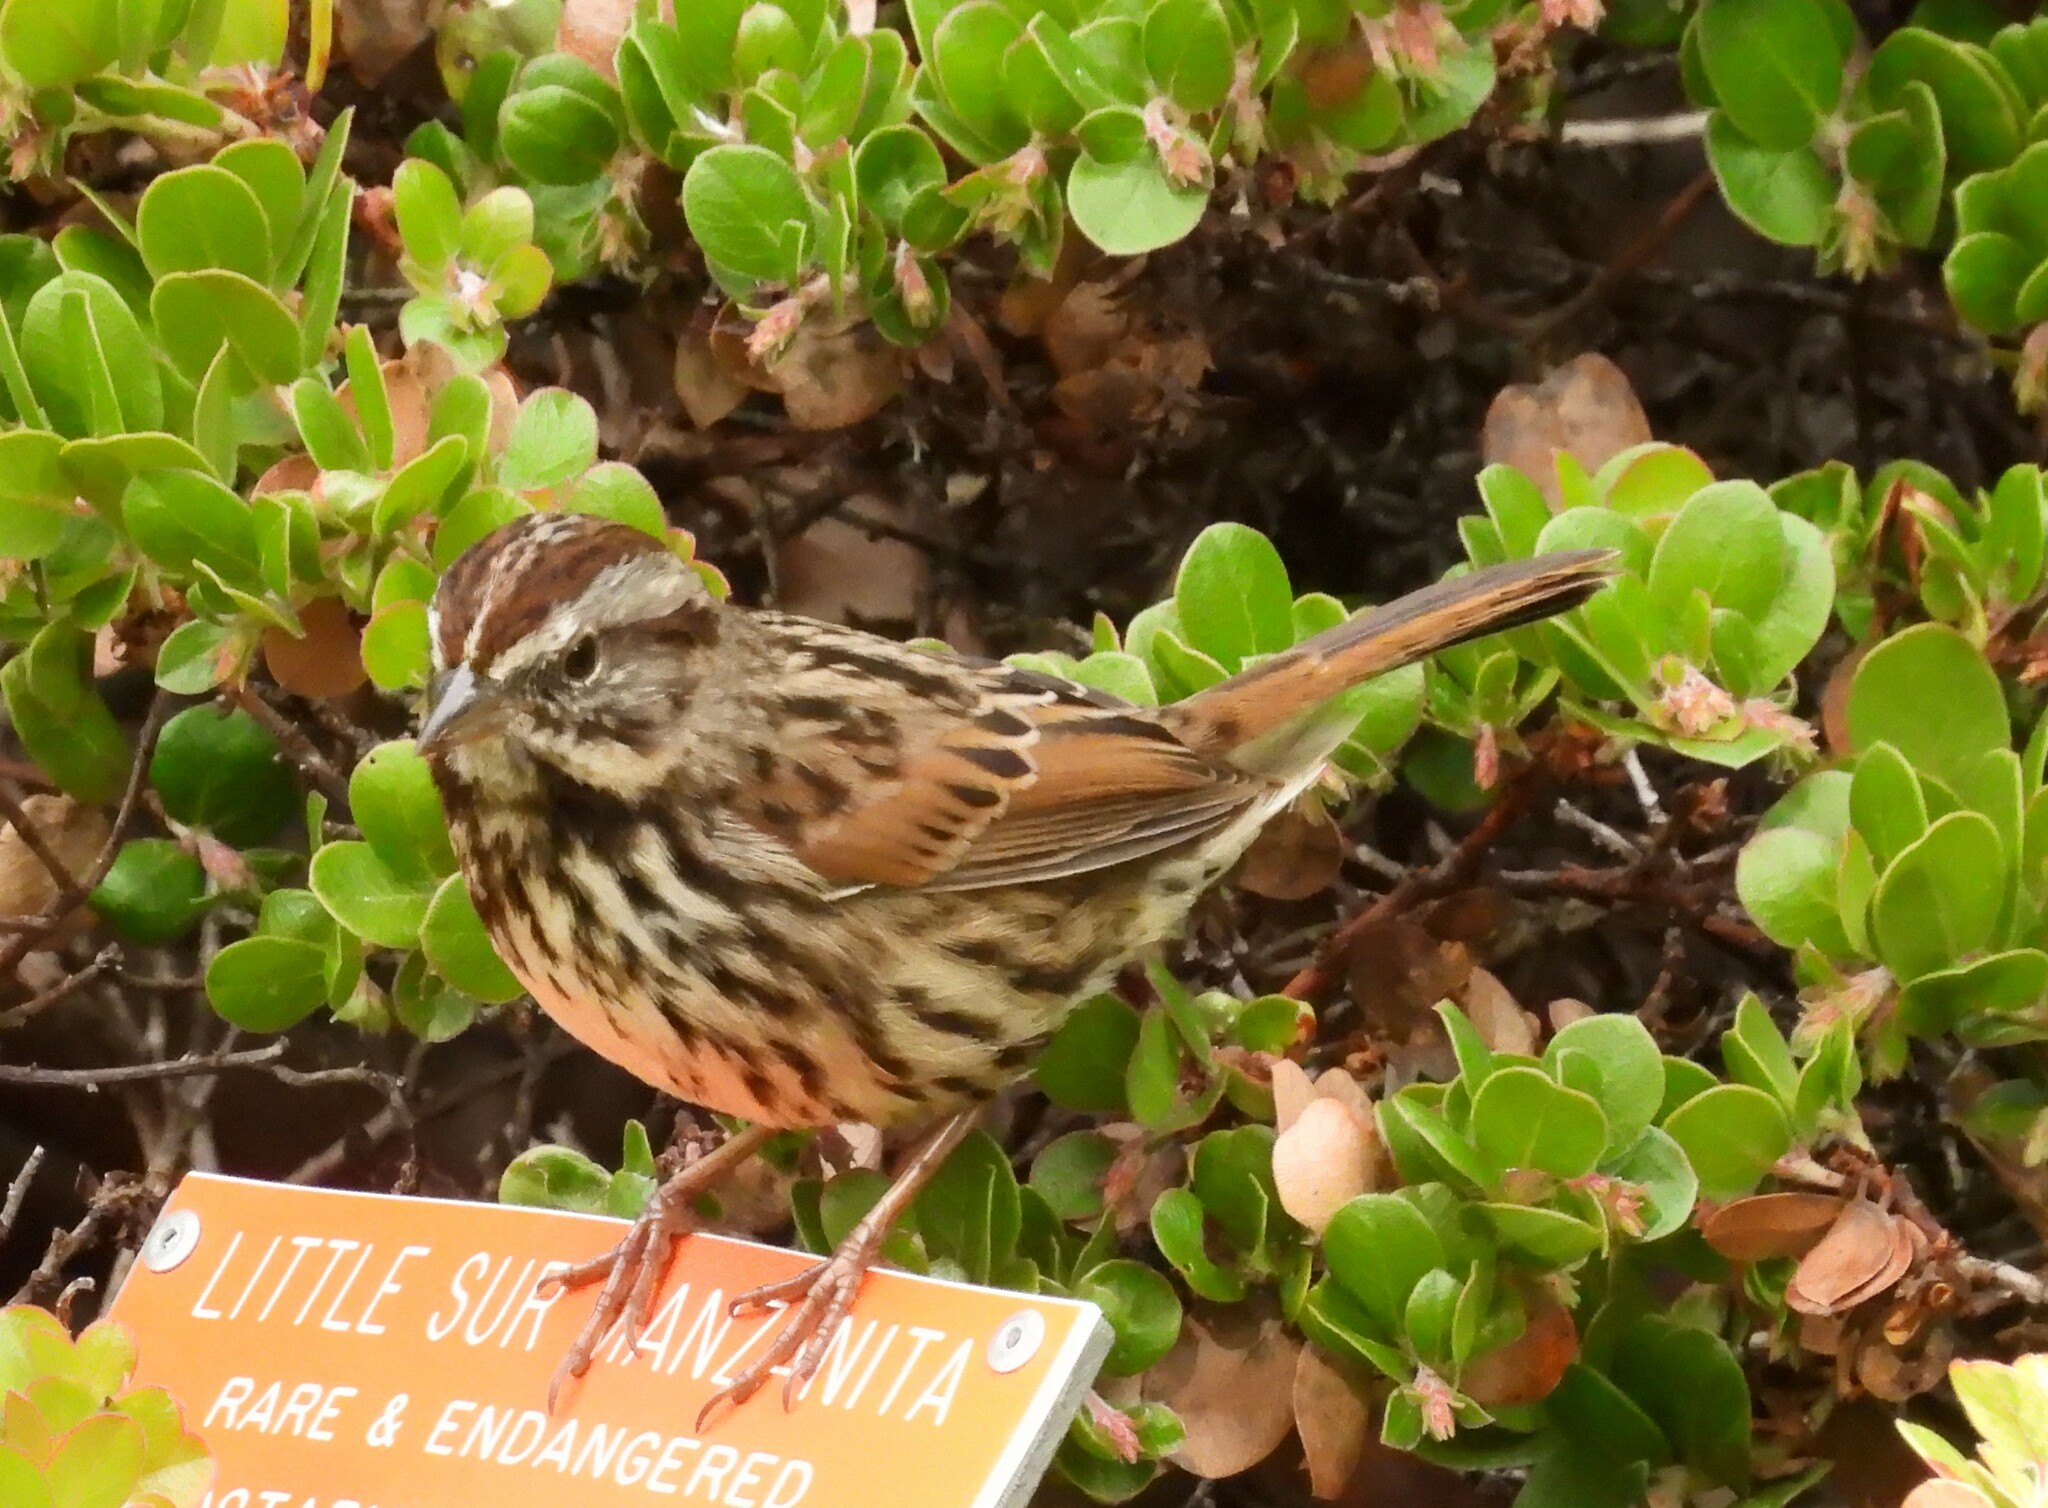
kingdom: Animalia
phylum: Chordata
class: Aves
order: Passeriformes
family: Passerellidae
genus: Melospiza
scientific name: Melospiza melodia
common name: Song sparrow
